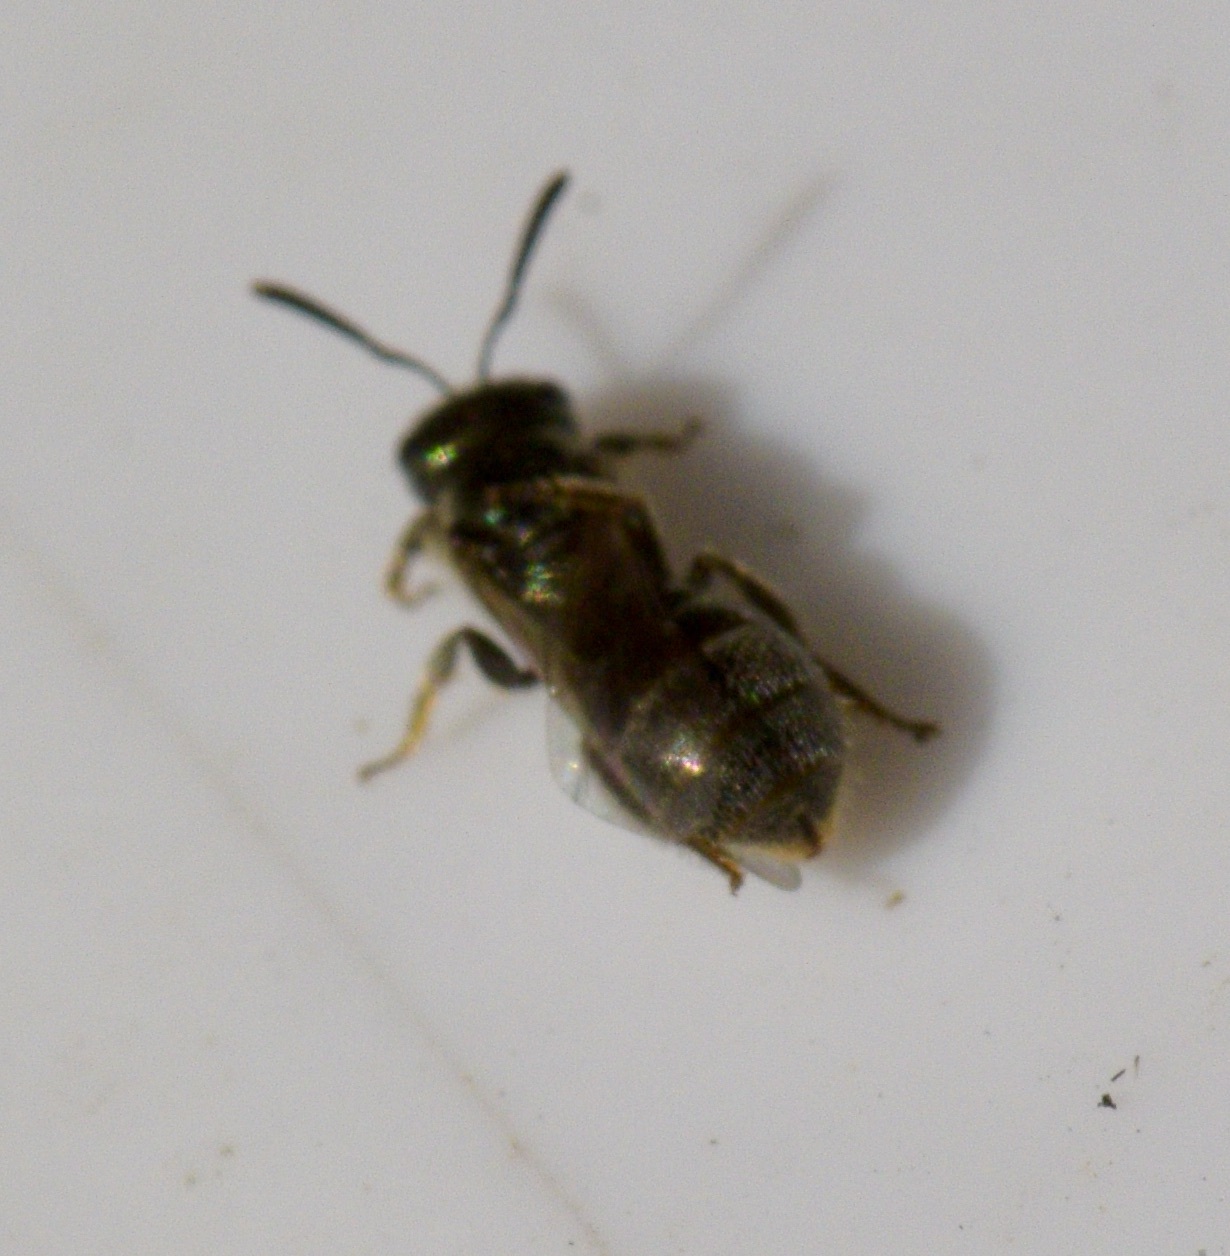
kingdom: Animalia
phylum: Arthropoda
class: Insecta
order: Hymenoptera
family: Halictidae
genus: Lasioglossum
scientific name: Lasioglossum imitatum
